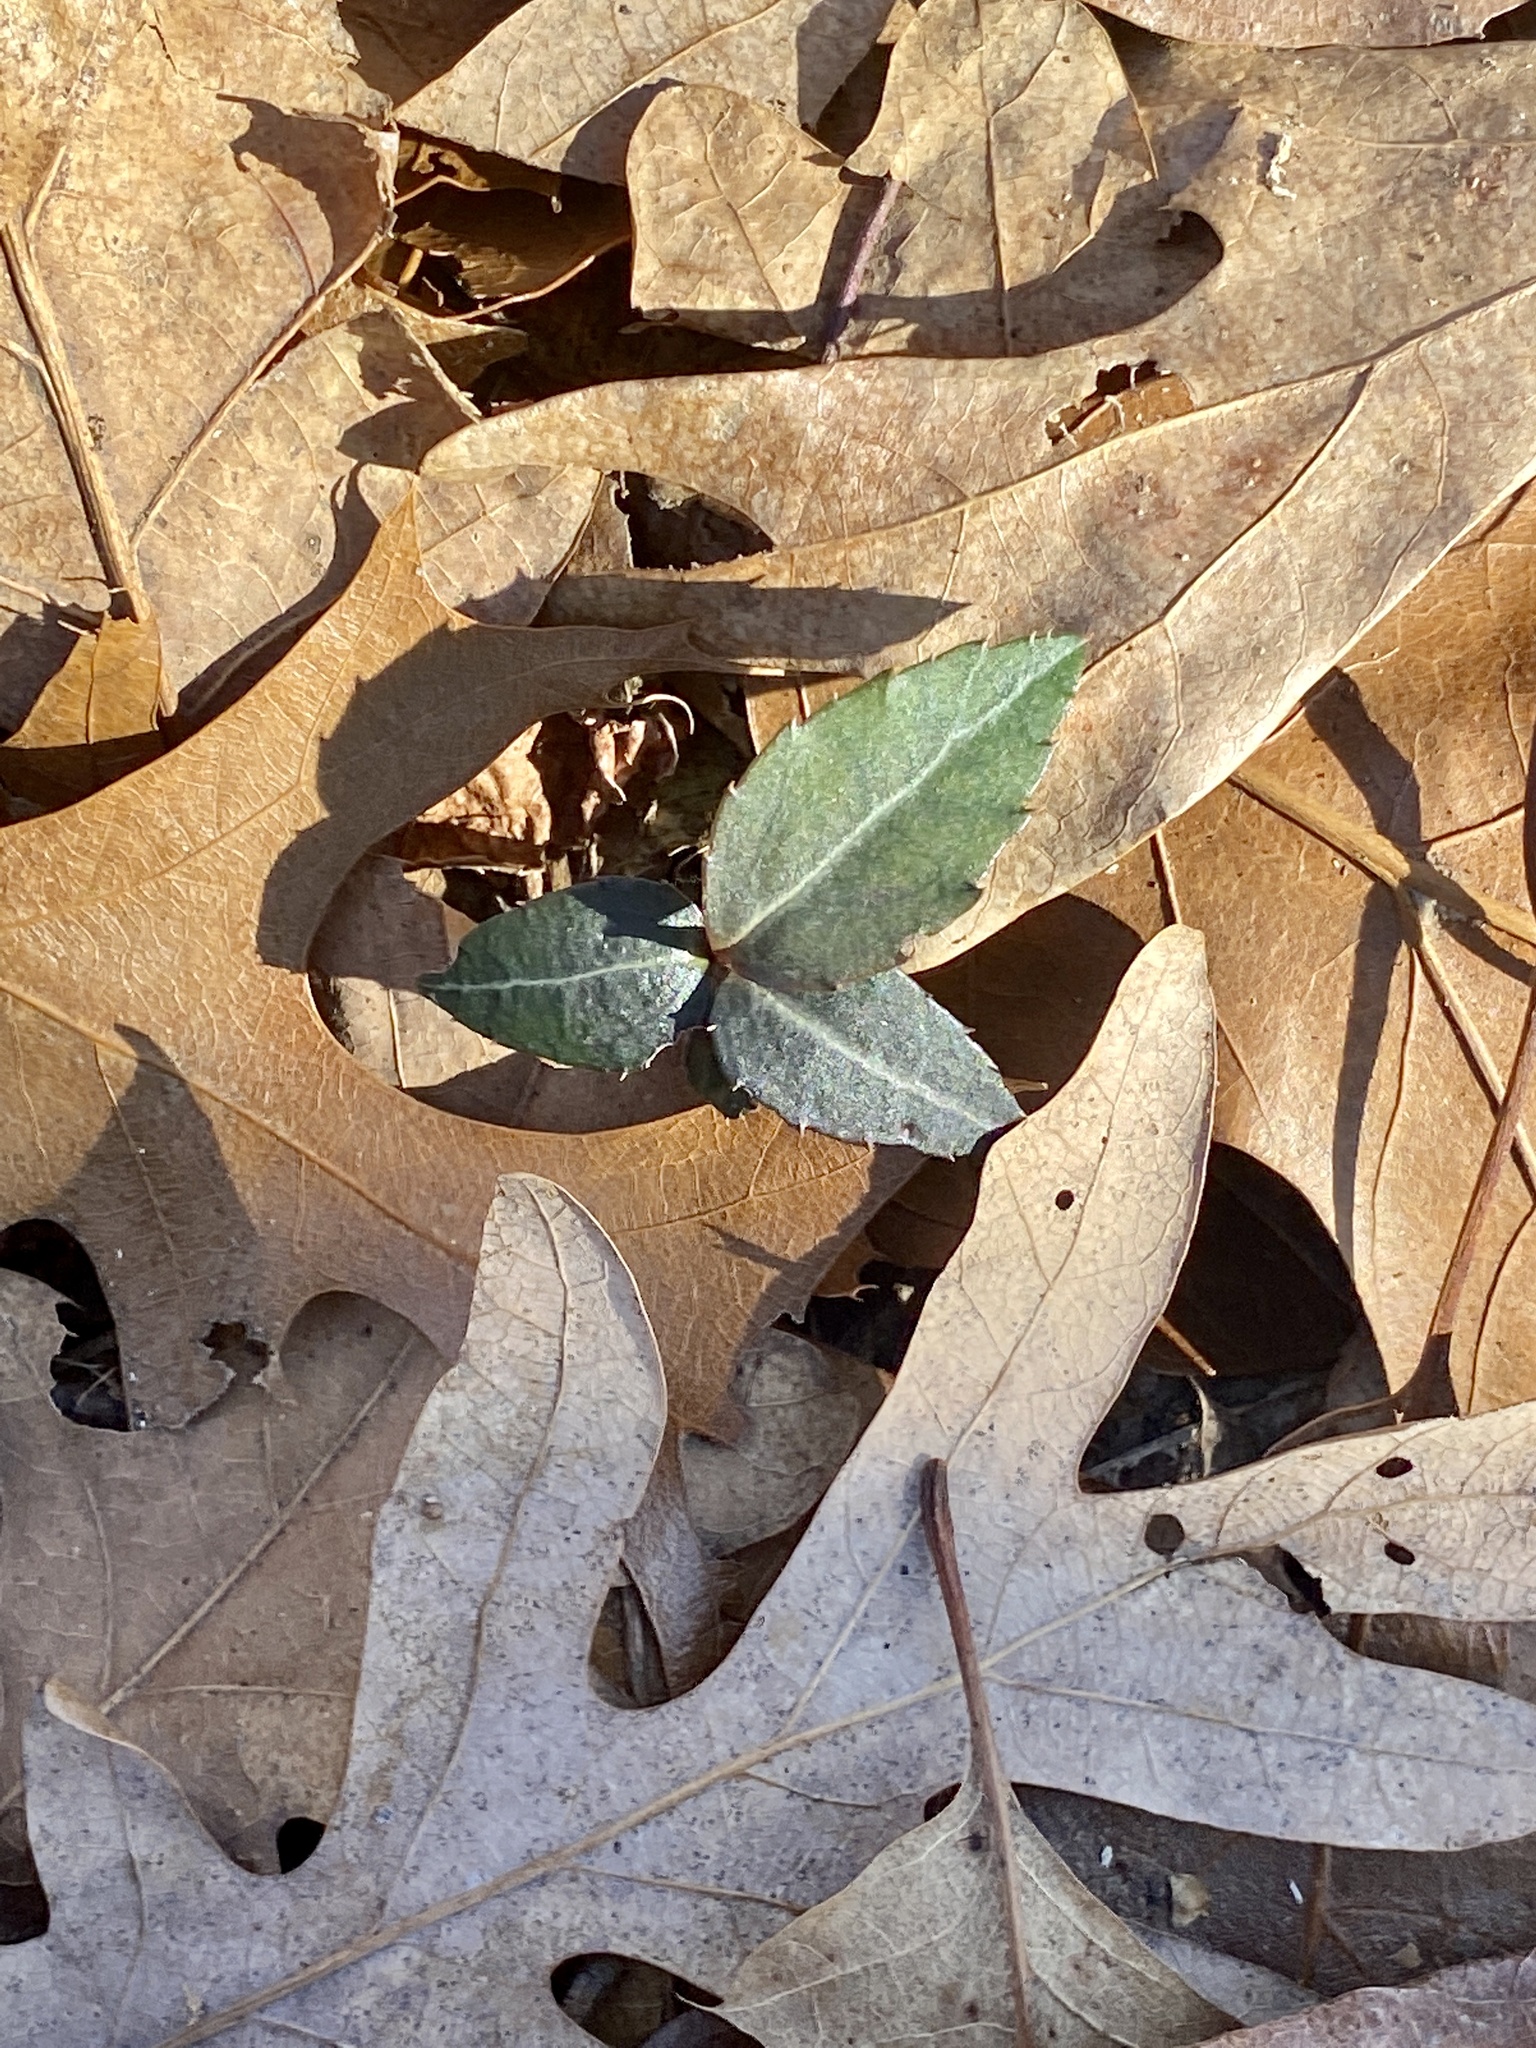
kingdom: Plantae
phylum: Tracheophyta
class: Magnoliopsida
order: Ericales
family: Ericaceae
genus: Chimaphila
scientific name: Chimaphila maculata
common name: Spotted pipsissewa
